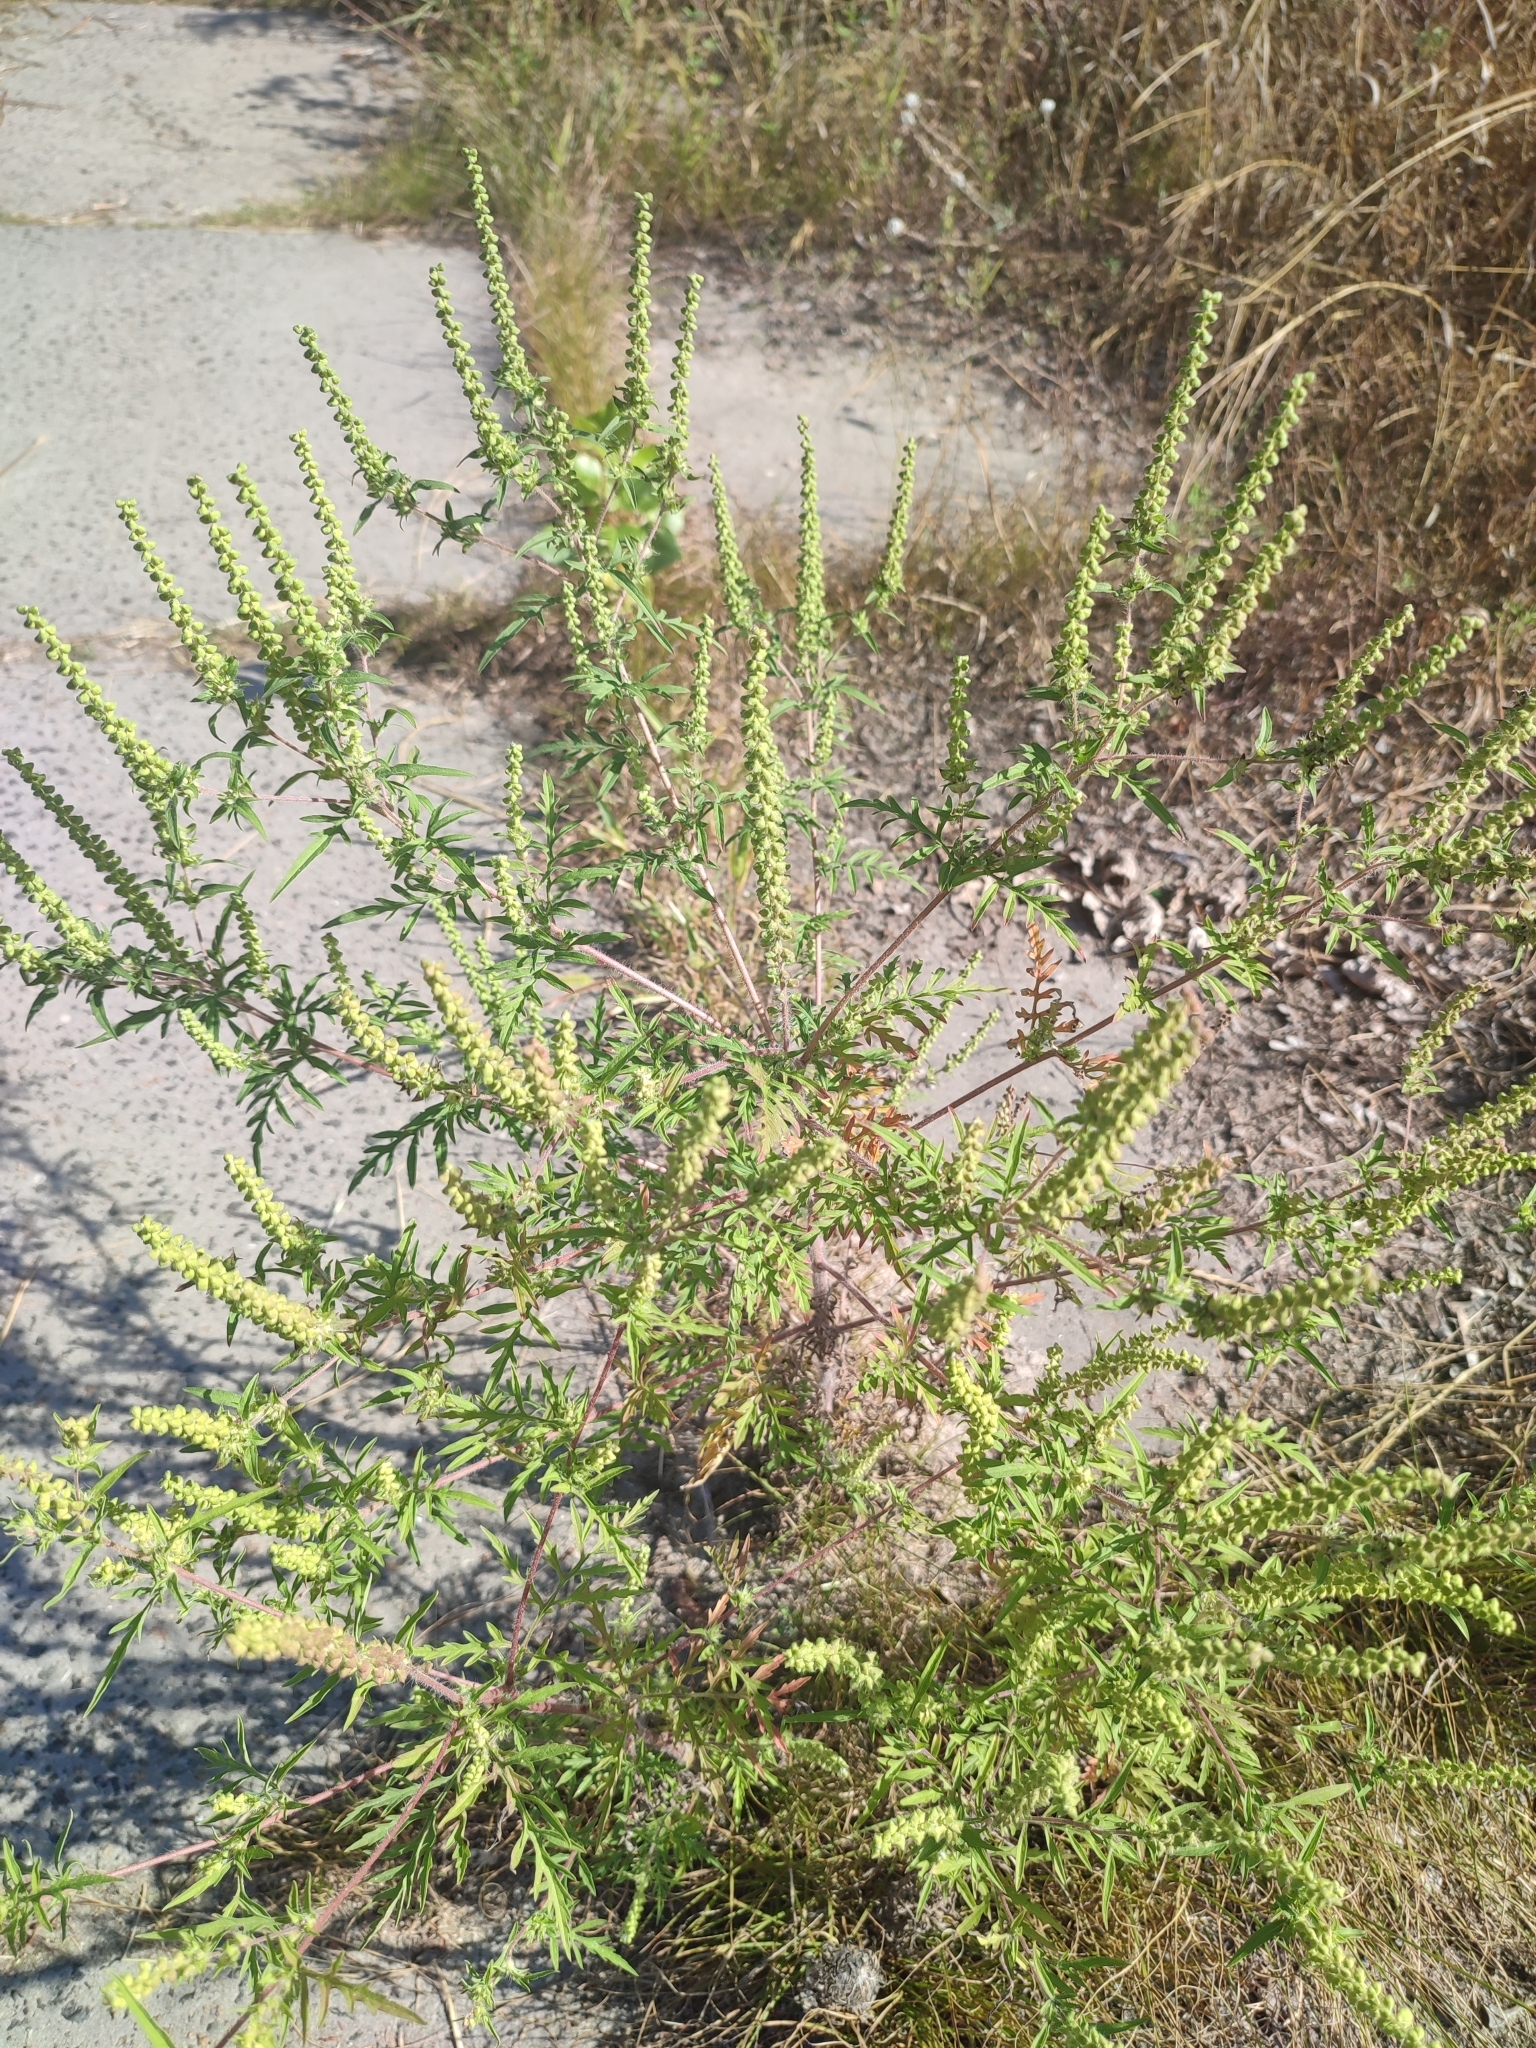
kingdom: Plantae
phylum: Tracheophyta
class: Magnoliopsida
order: Asterales
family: Asteraceae
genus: Ambrosia
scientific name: Ambrosia artemisiifolia
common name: Annual ragweed
